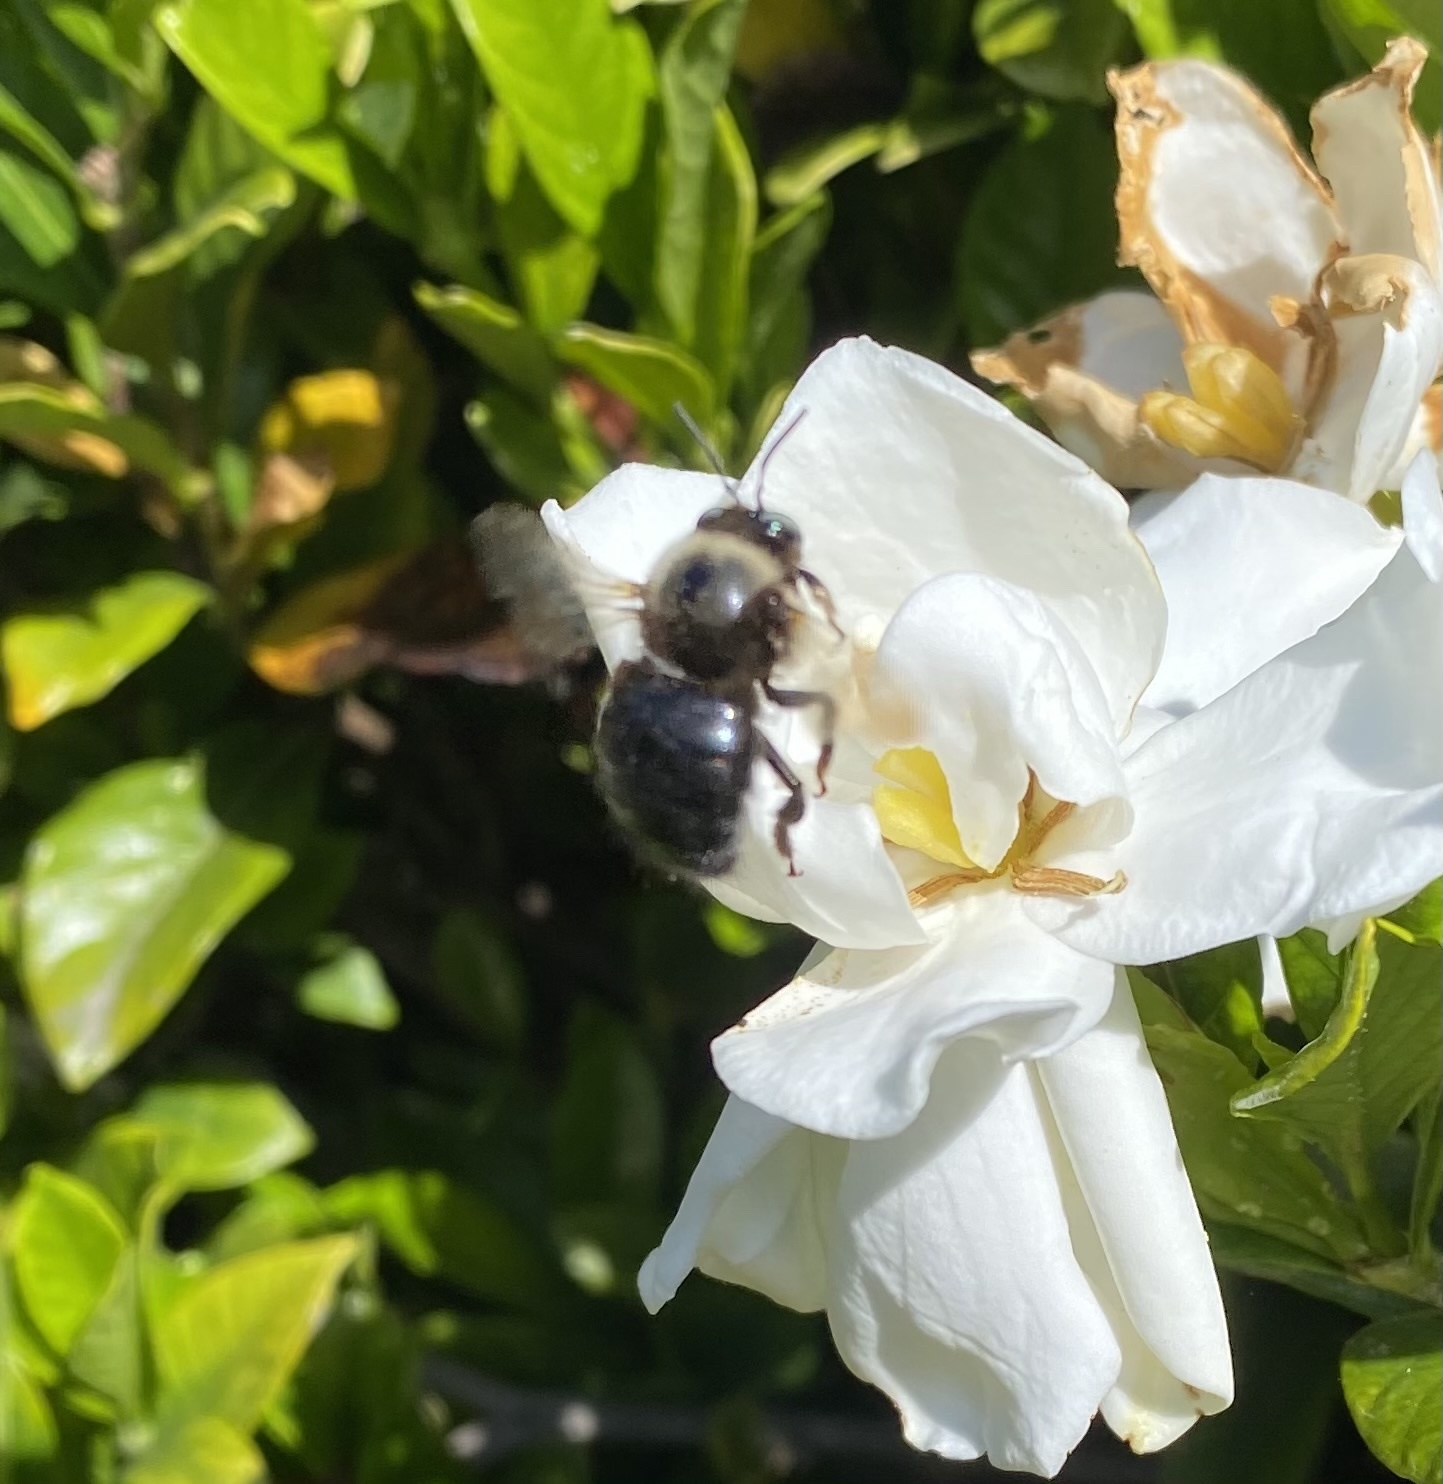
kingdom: Animalia
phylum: Arthropoda
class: Insecta
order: Hymenoptera
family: Apidae
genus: Xylocopa
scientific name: Xylocopa tabaniformis
